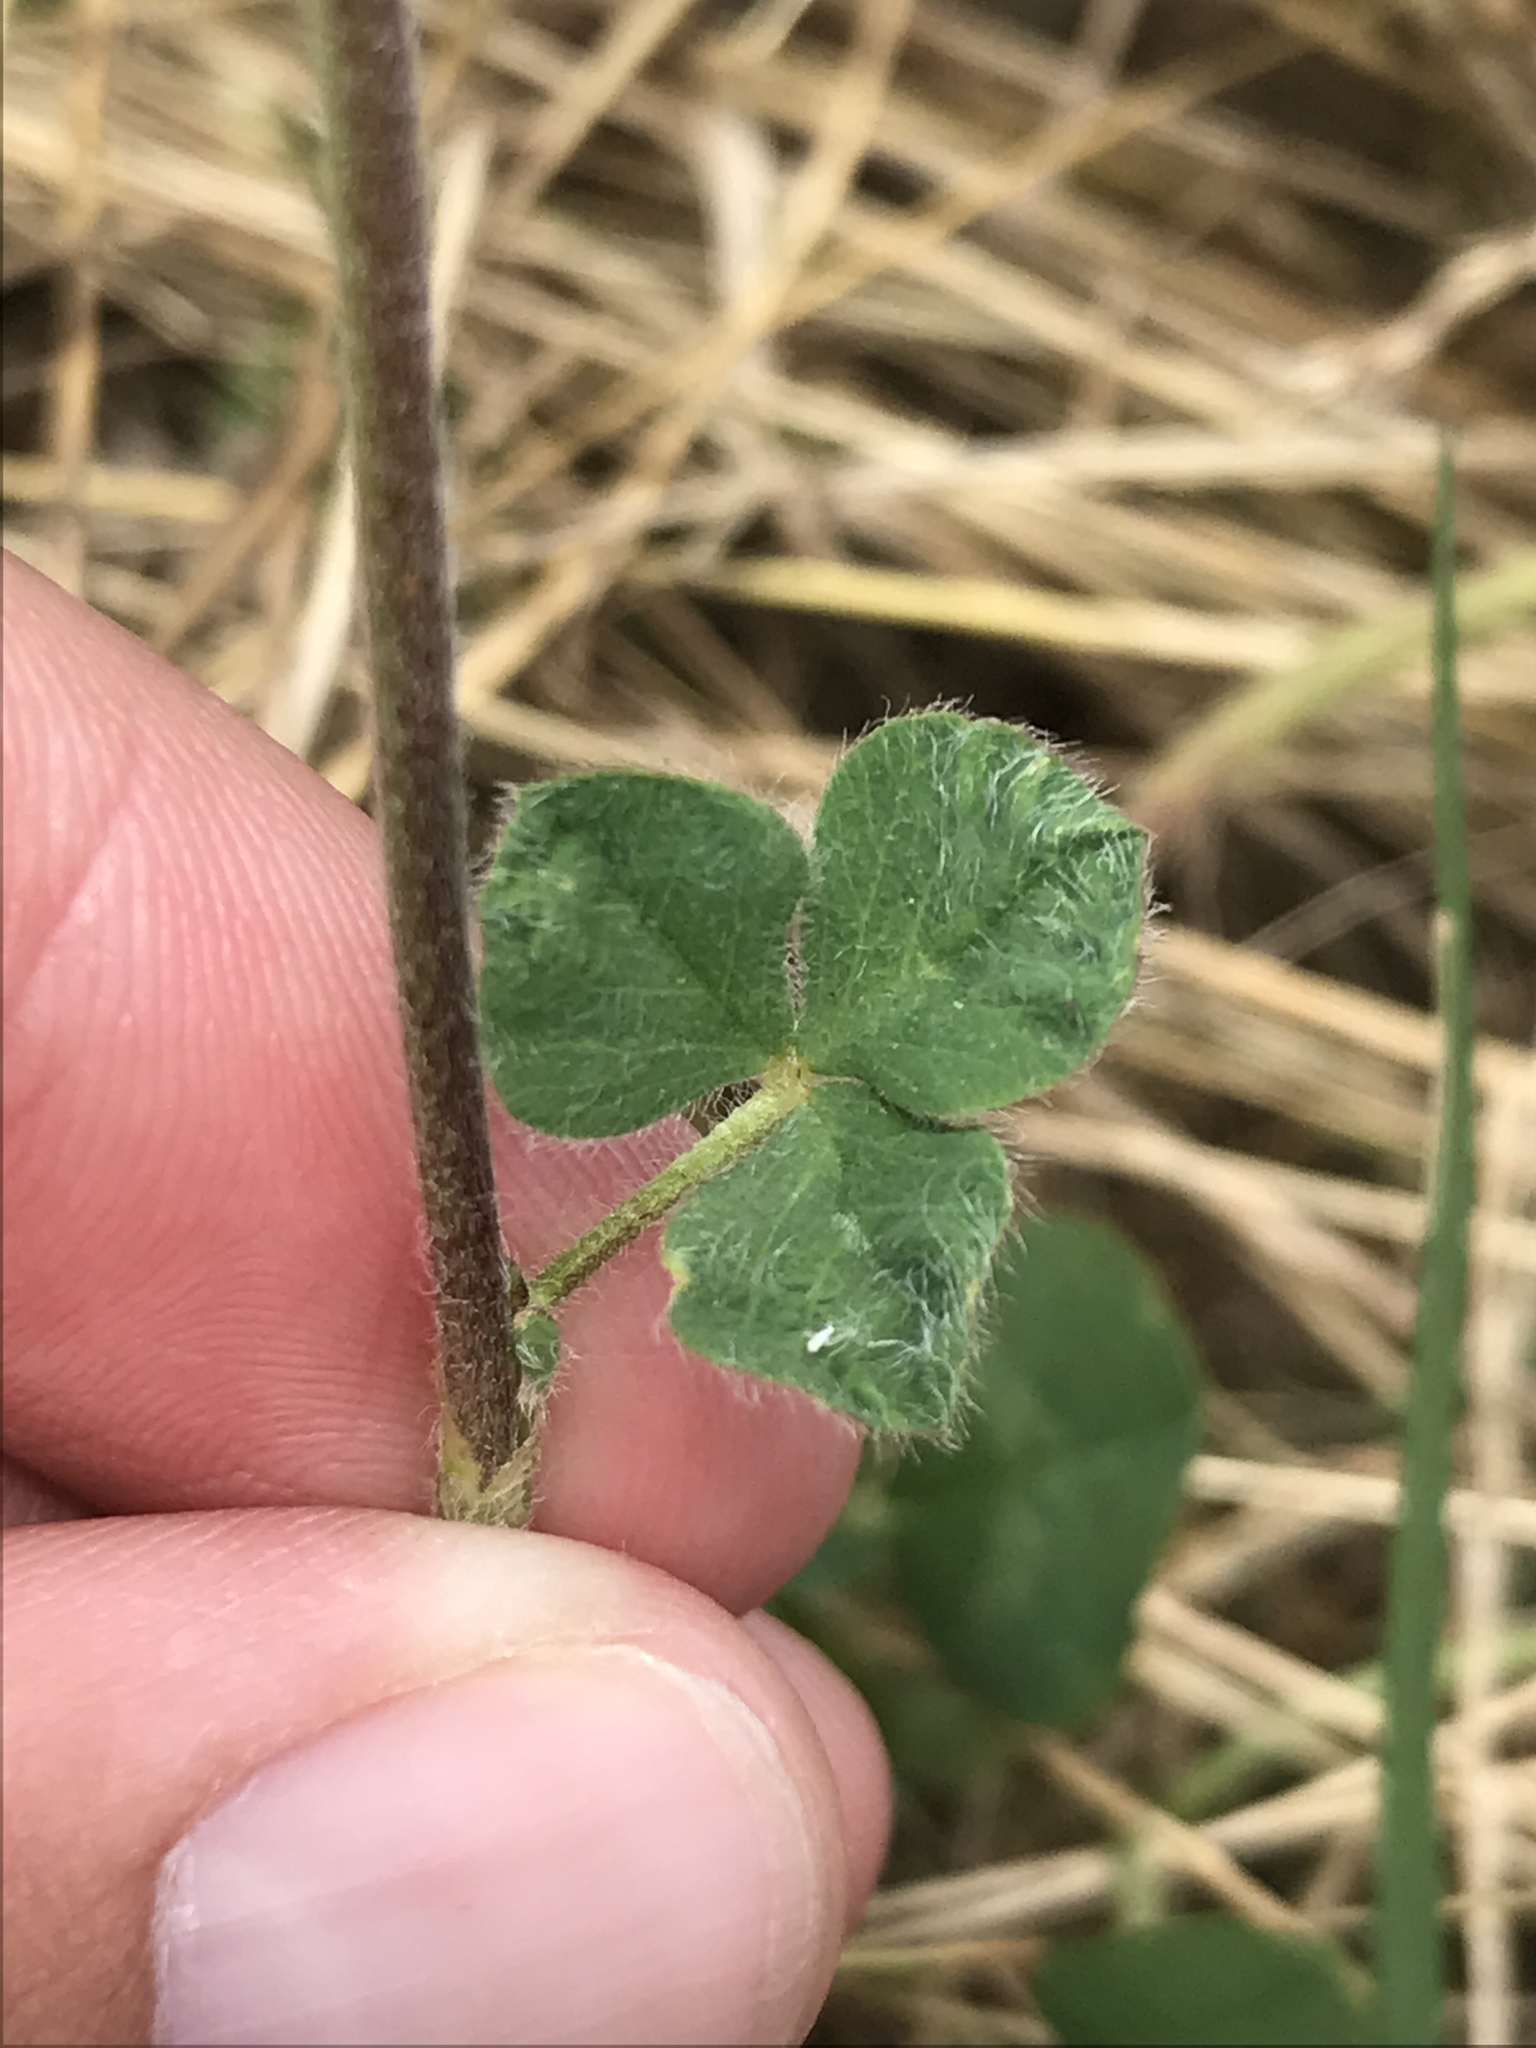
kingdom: Plantae
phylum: Tracheophyta
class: Magnoliopsida
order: Fabales
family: Fabaceae
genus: Trifolium
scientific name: Trifolium incarnatum
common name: Crimson clover
